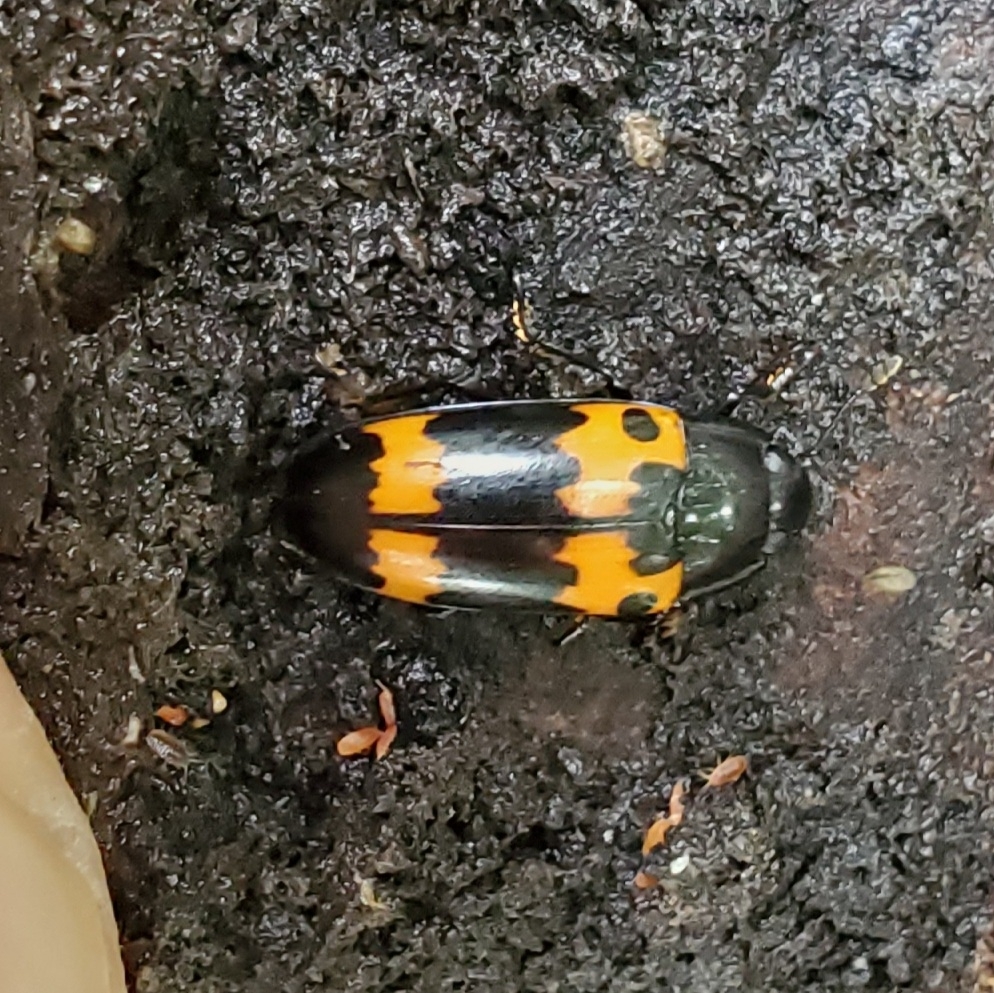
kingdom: Animalia
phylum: Arthropoda
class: Insecta
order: Coleoptera
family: Erotylidae
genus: Megalodacne
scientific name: Megalodacne fasciata
